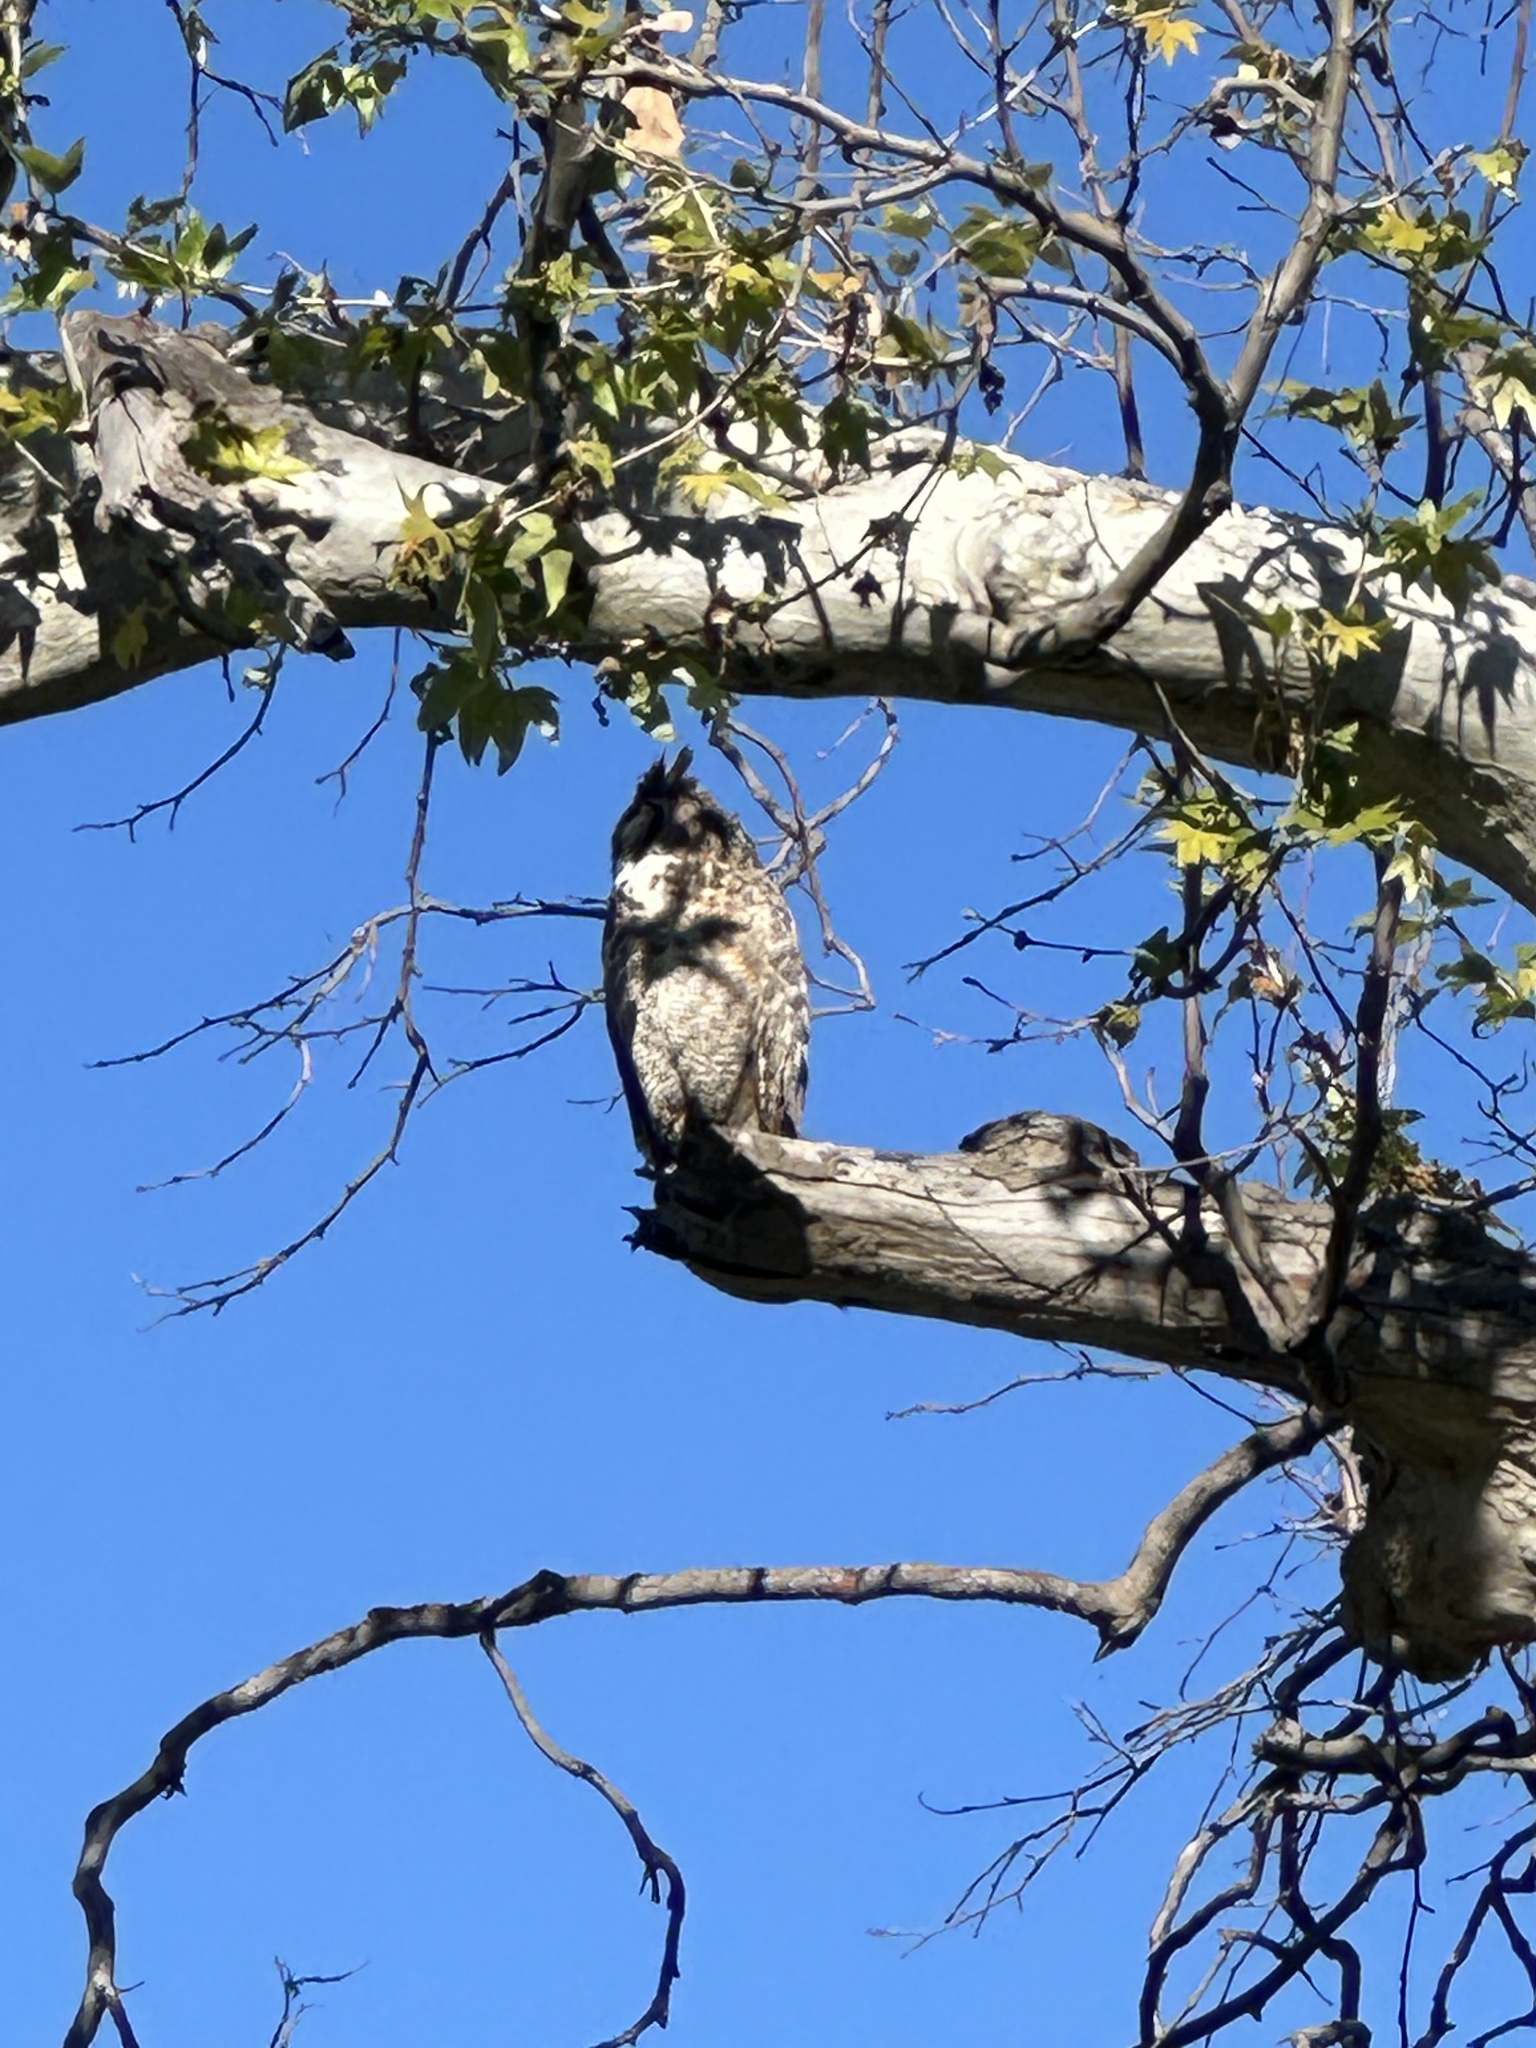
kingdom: Animalia
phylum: Chordata
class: Aves
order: Strigiformes
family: Strigidae
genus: Bubo
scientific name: Bubo virginianus
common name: Great horned owl
